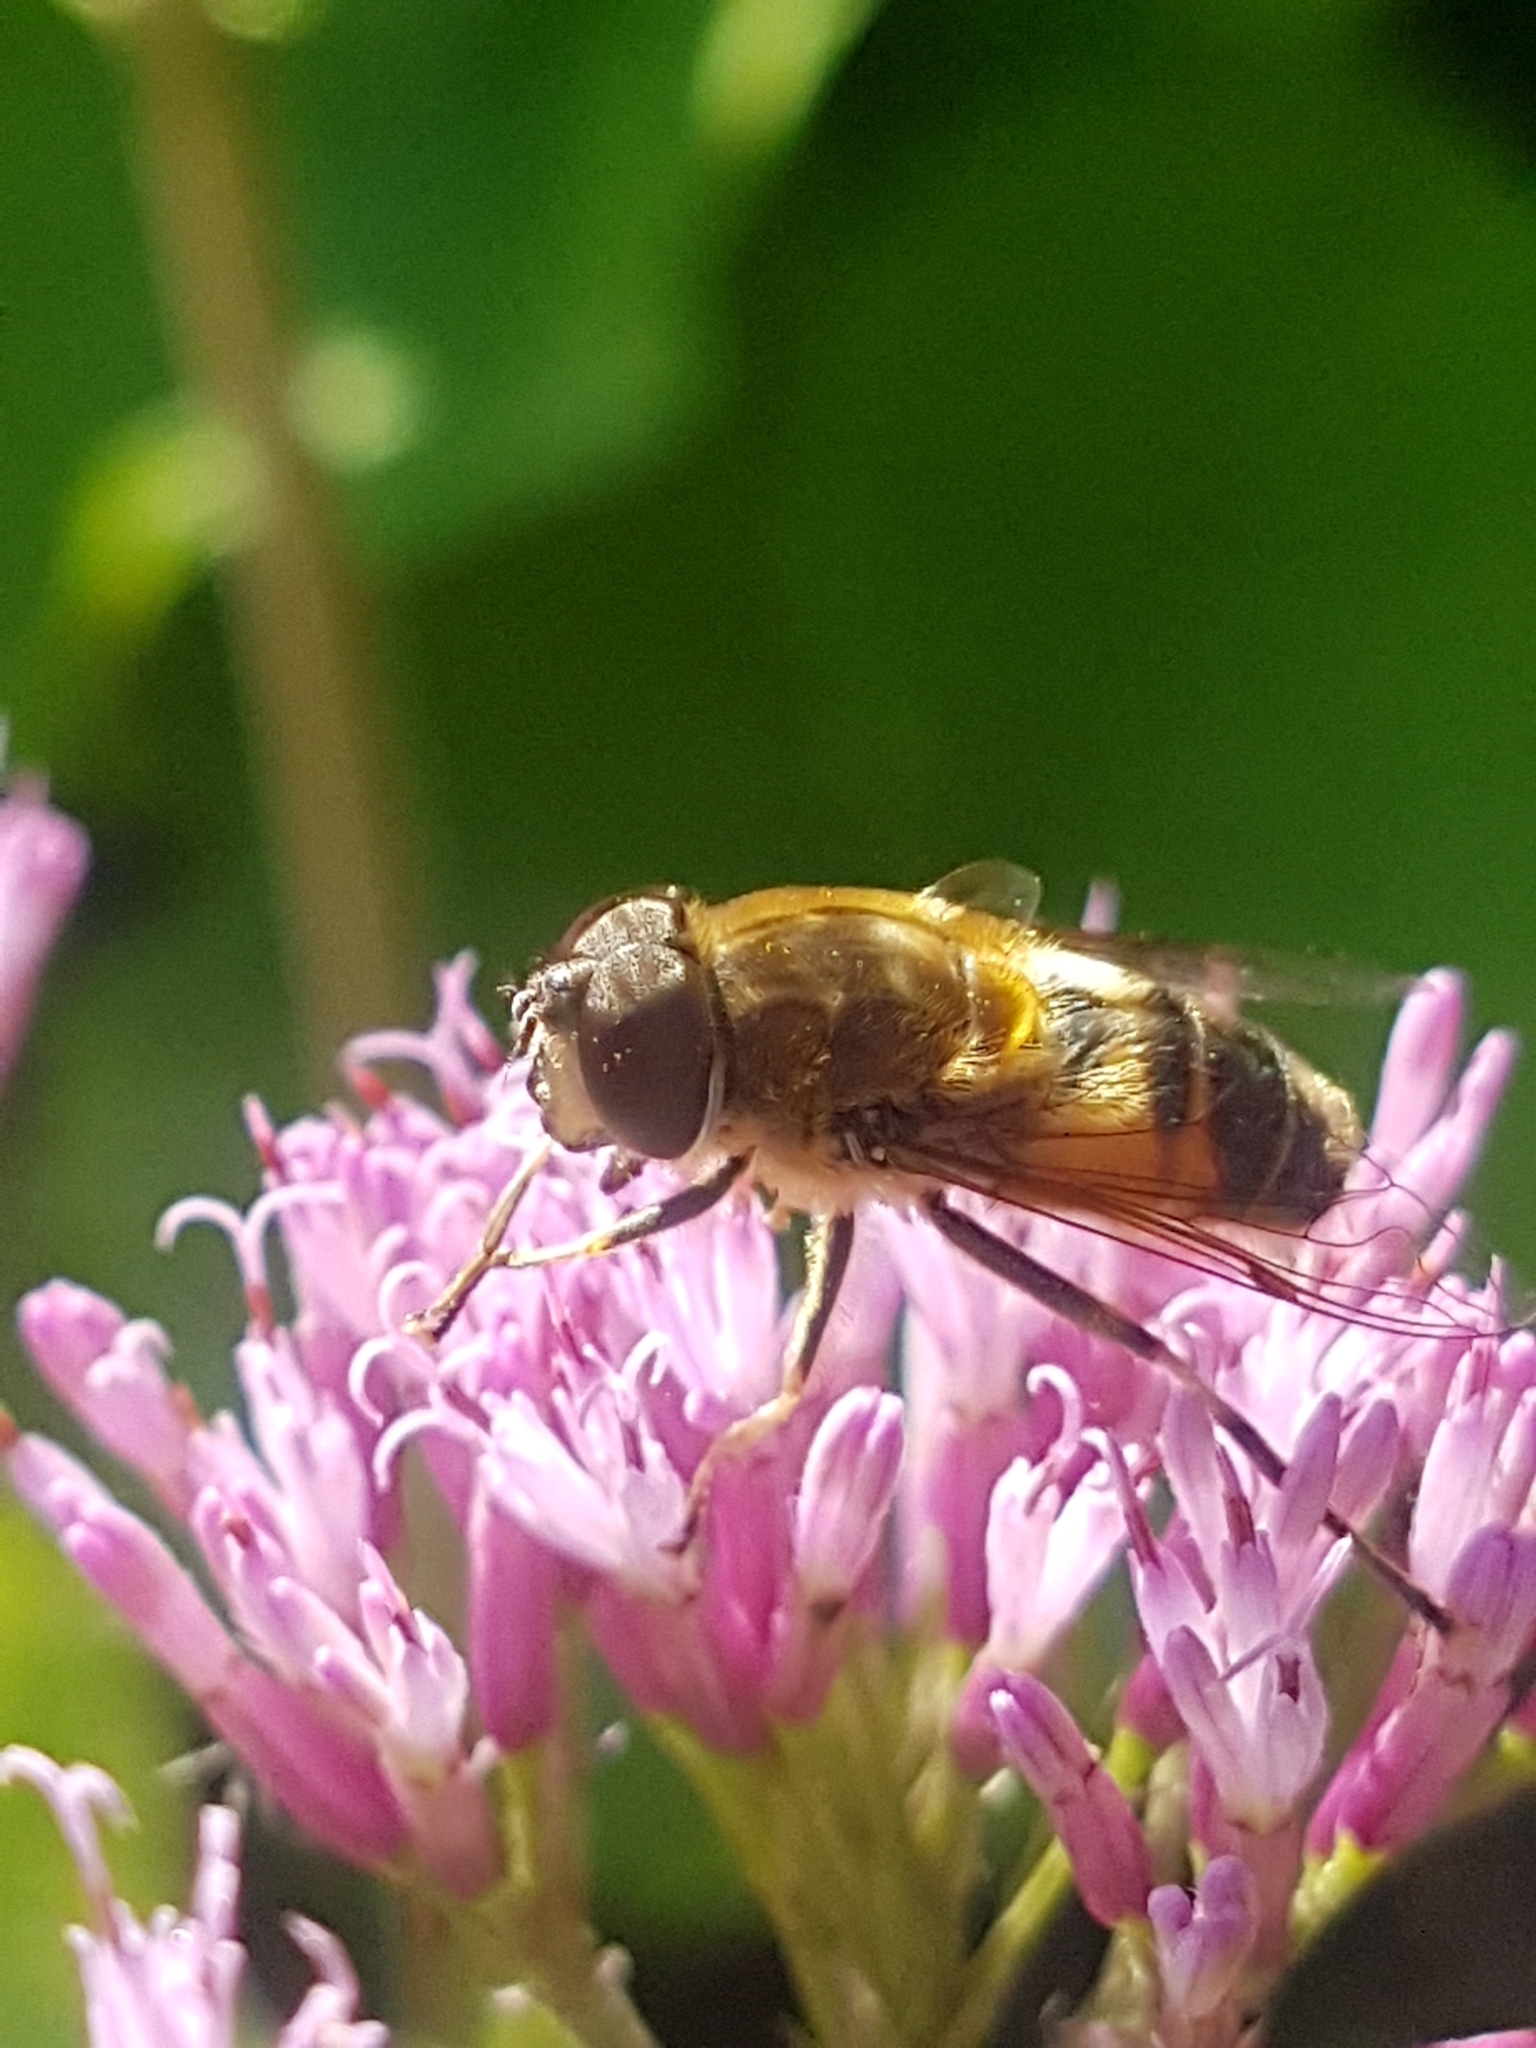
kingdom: Animalia
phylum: Arthropoda
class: Insecta
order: Diptera
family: Syrphidae
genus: Eristalis
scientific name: Eristalis pertinax
